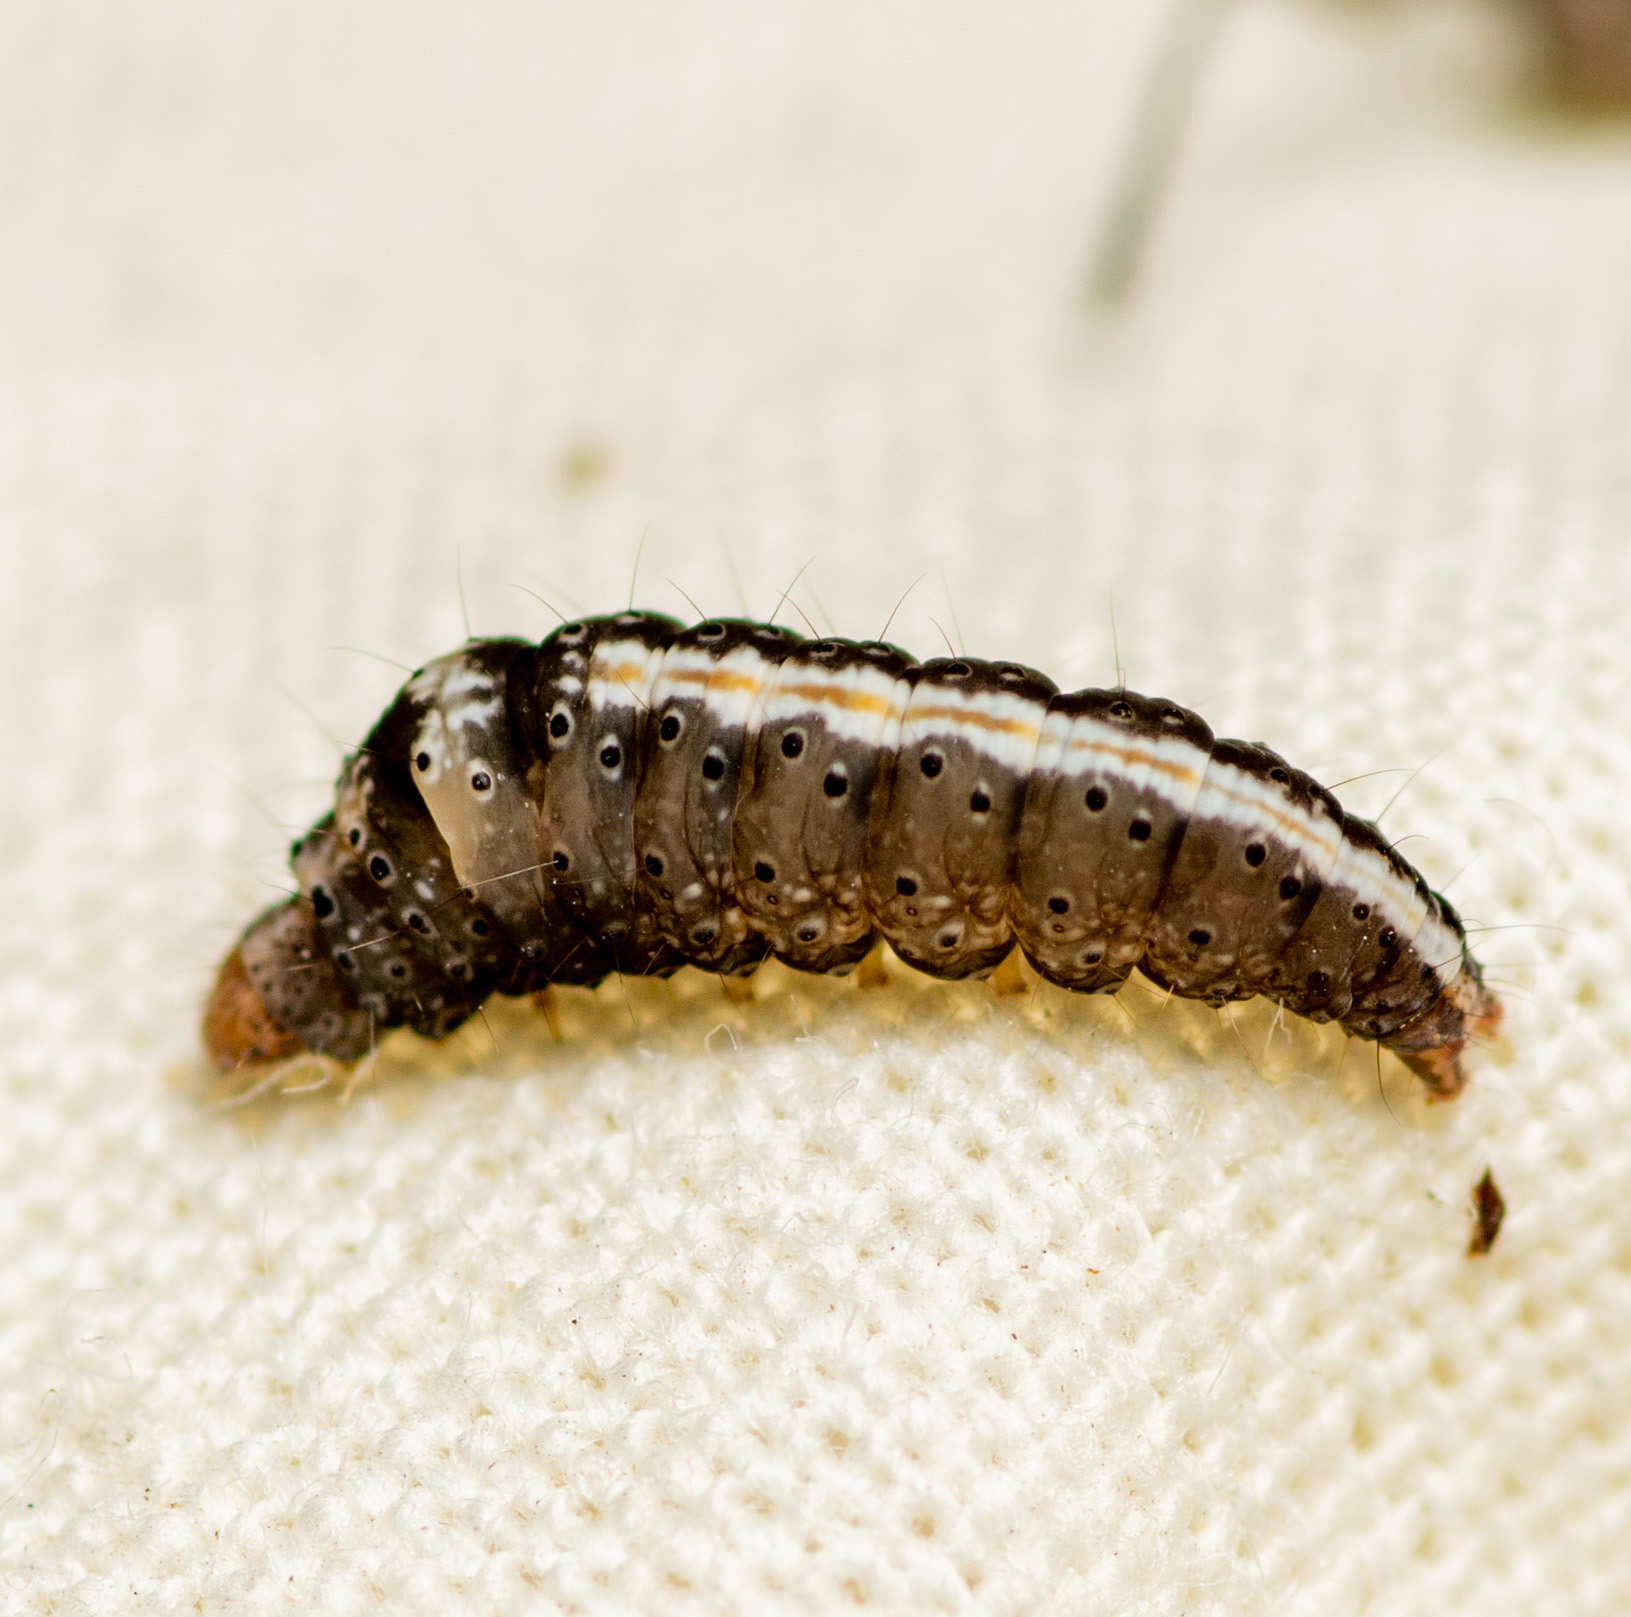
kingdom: Animalia
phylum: Arthropoda
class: Insecta
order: Lepidoptera
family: Ypsolophidae
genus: Ypsolopha
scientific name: Ypsolopha
